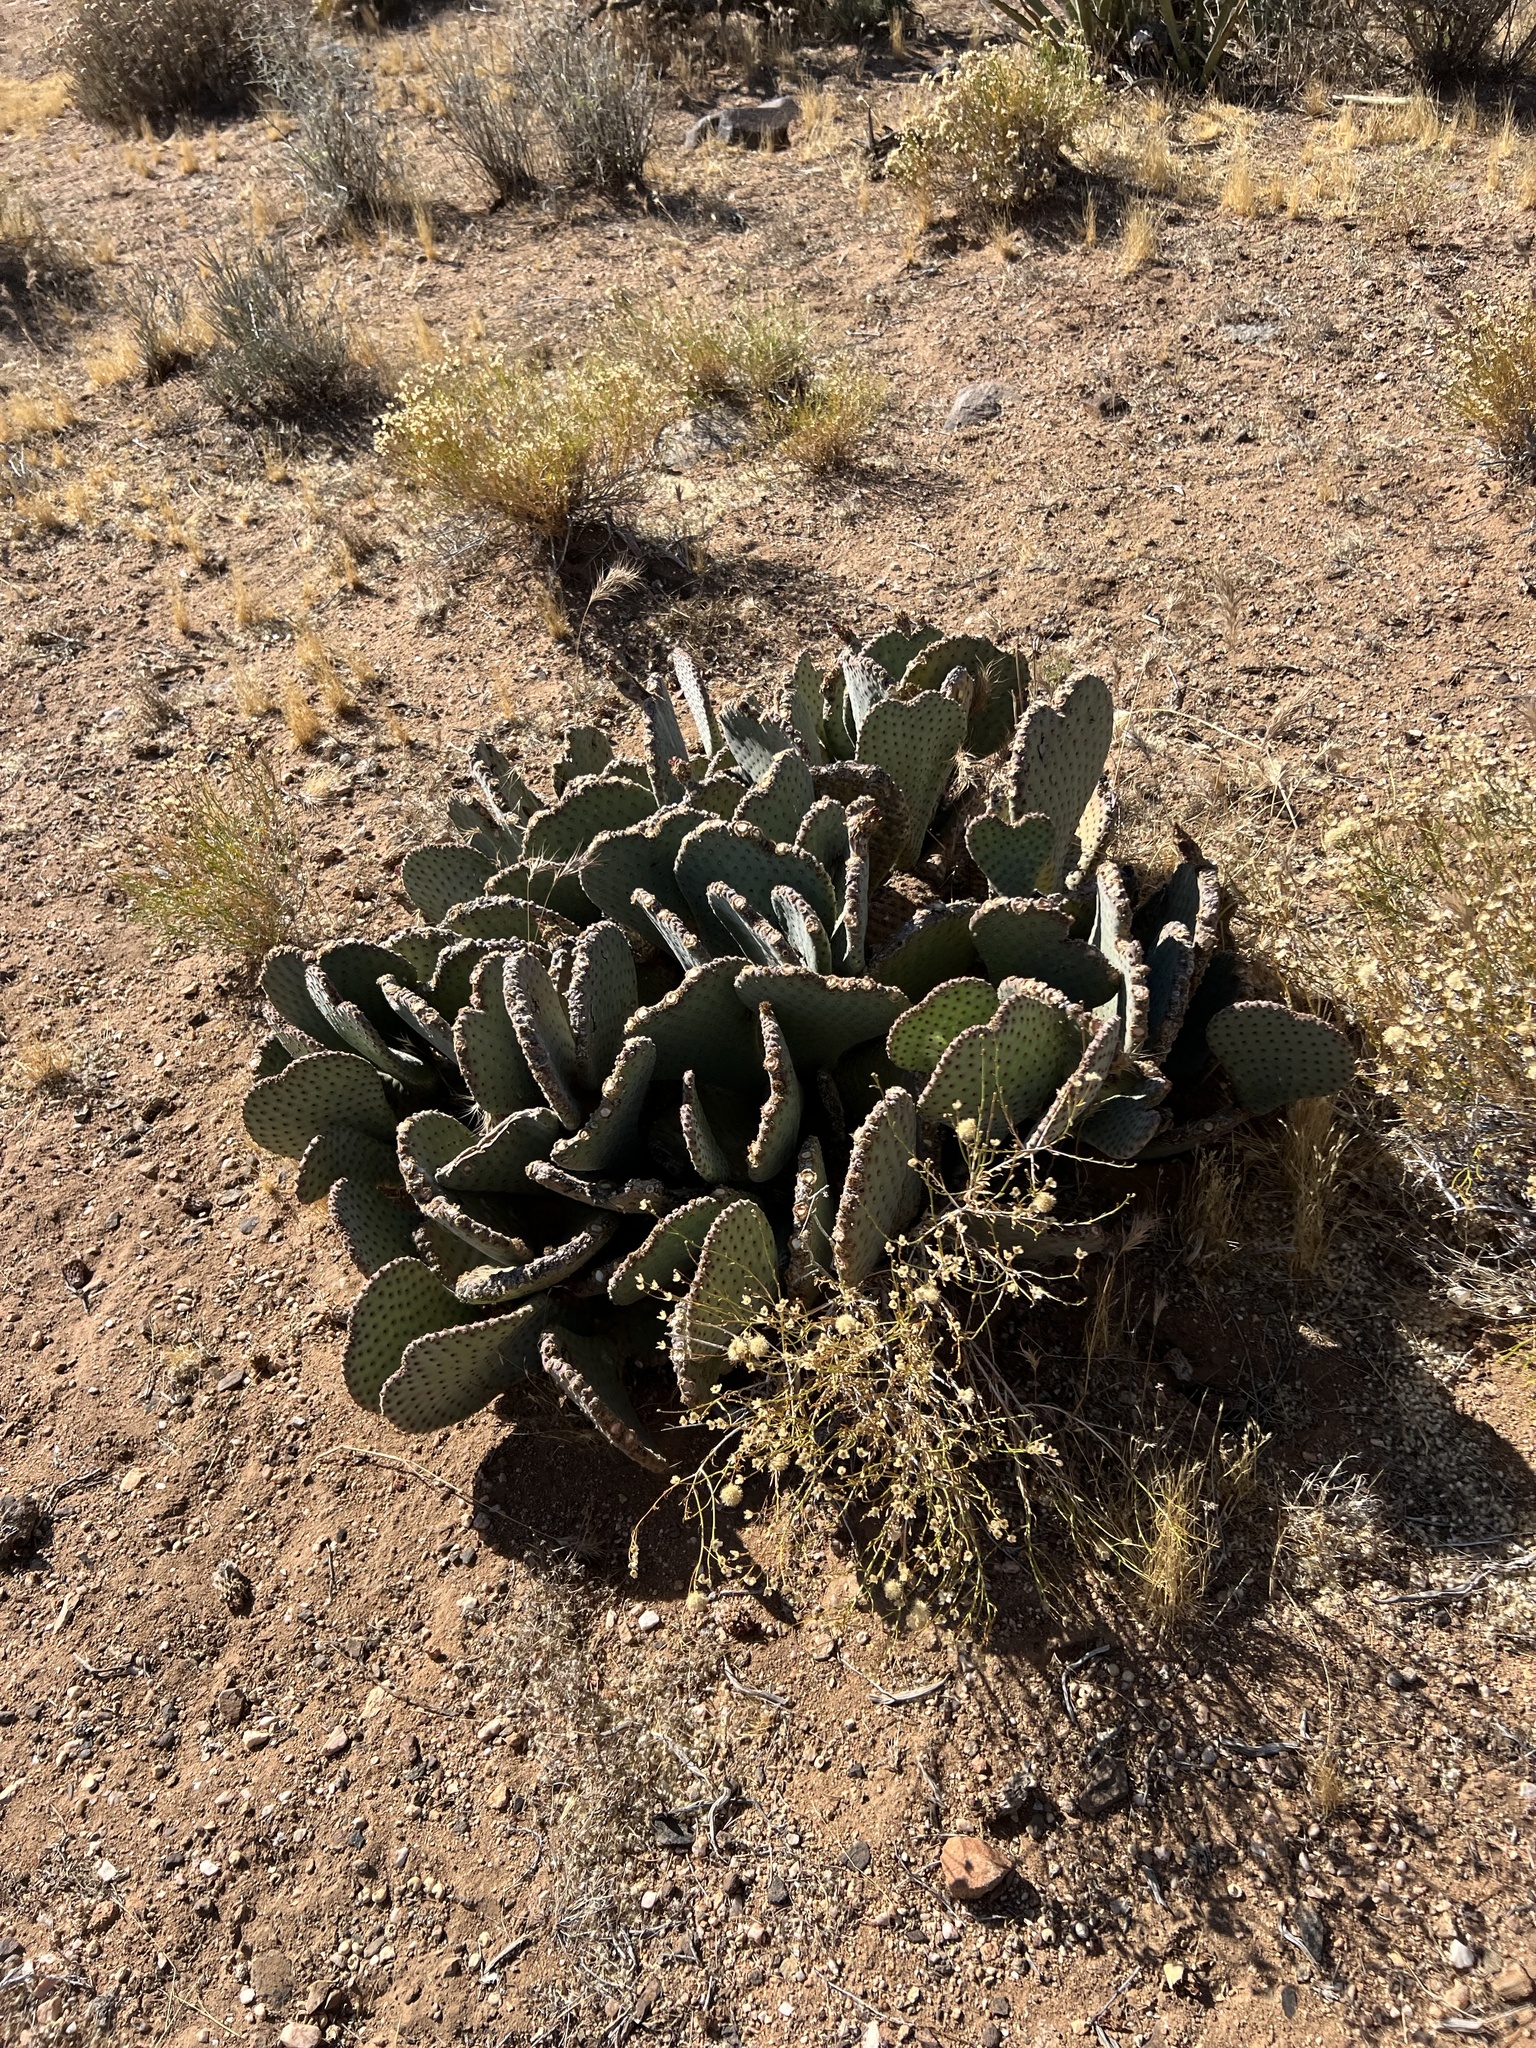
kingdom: Plantae
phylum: Tracheophyta
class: Magnoliopsida
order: Caryophyllales
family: Cactaceae
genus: Opuntia
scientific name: Opuntia basilaris
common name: Beavertail prickly-pear
